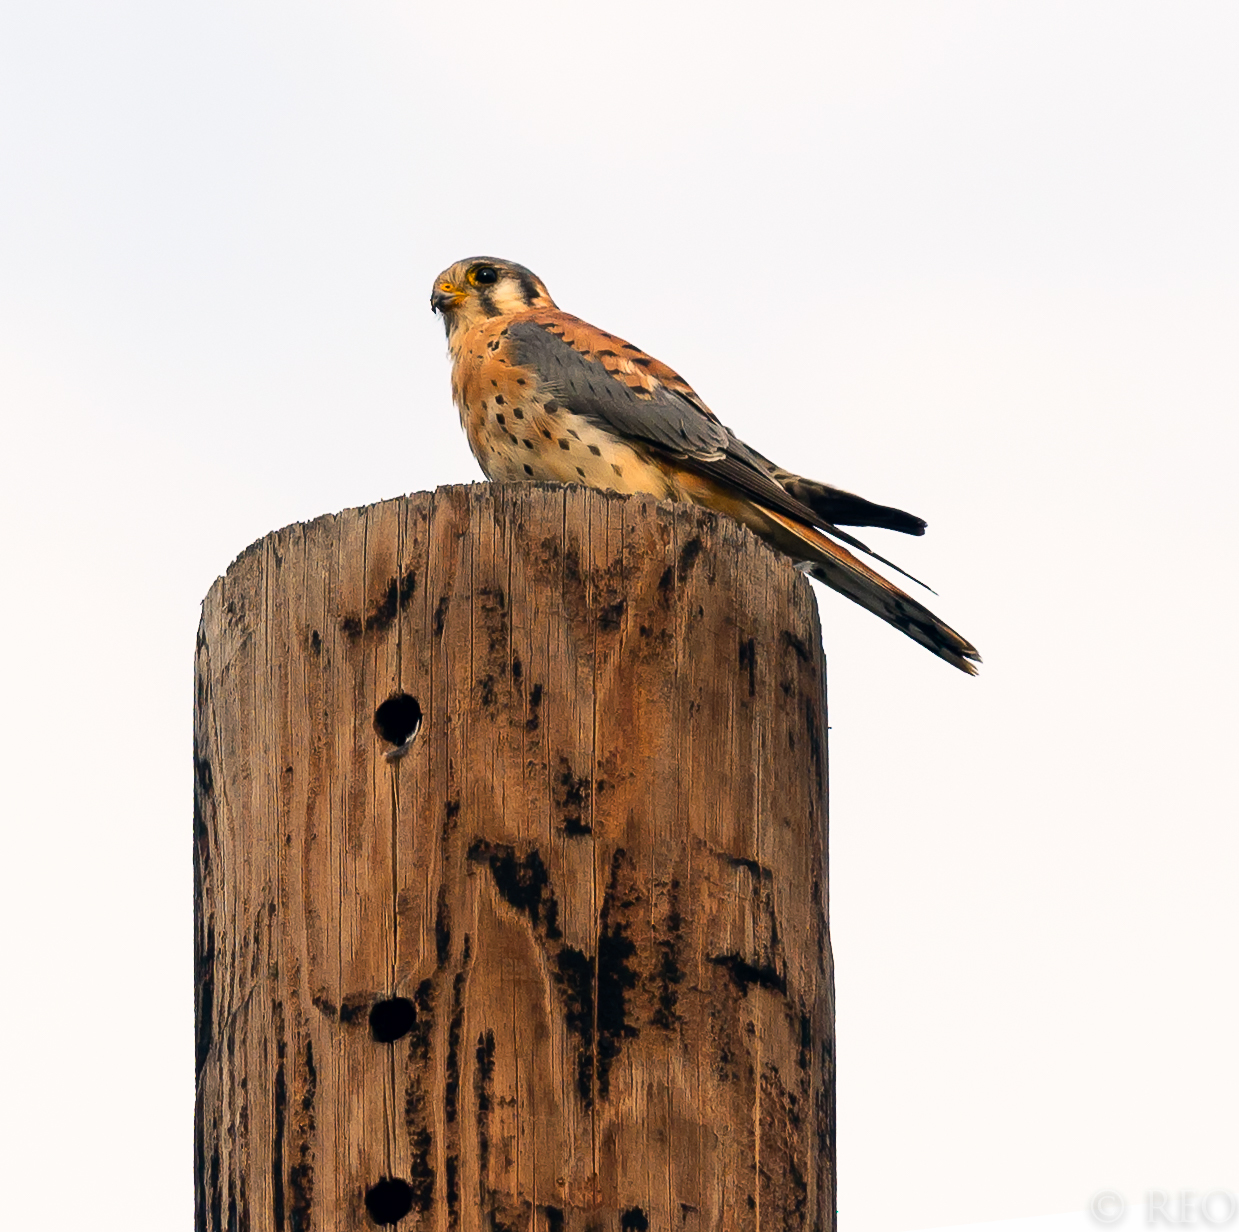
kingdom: Animalia
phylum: Chordata
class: Aves
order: Falconiformes
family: Falconidae
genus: Falco
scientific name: Falco sparverius
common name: American kestrel
